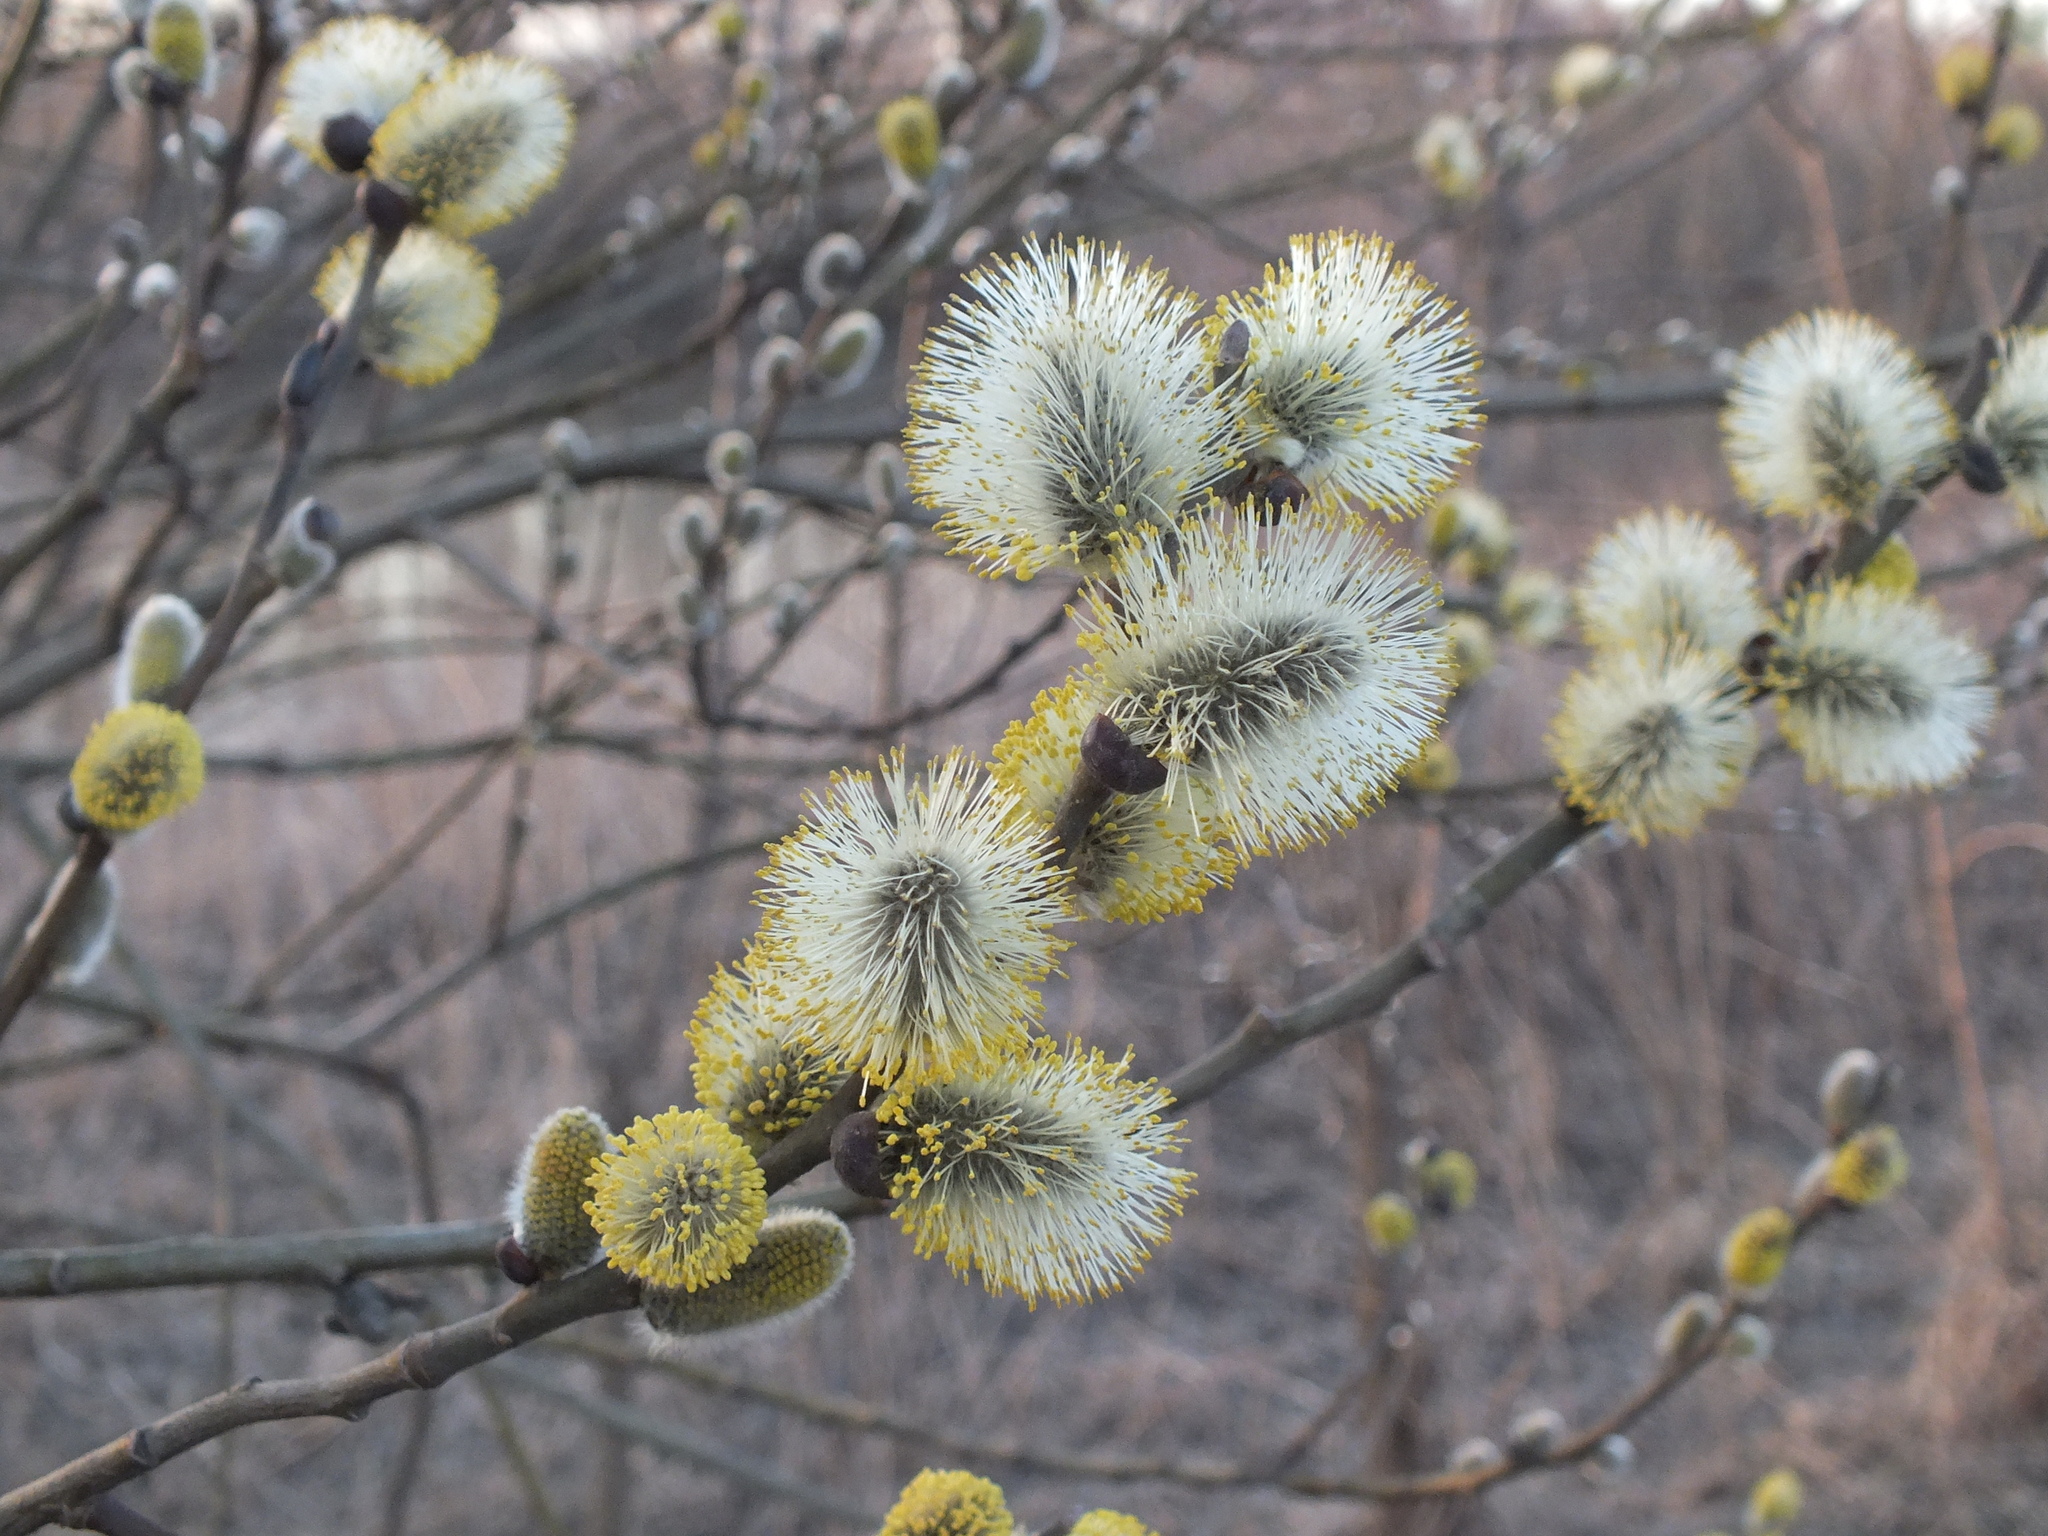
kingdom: Plantae
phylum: Tracheophyta
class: Magnoliopsida
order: Malpighiales
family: Salicaceae
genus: Salix
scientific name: Salix caprea
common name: Goat willow
